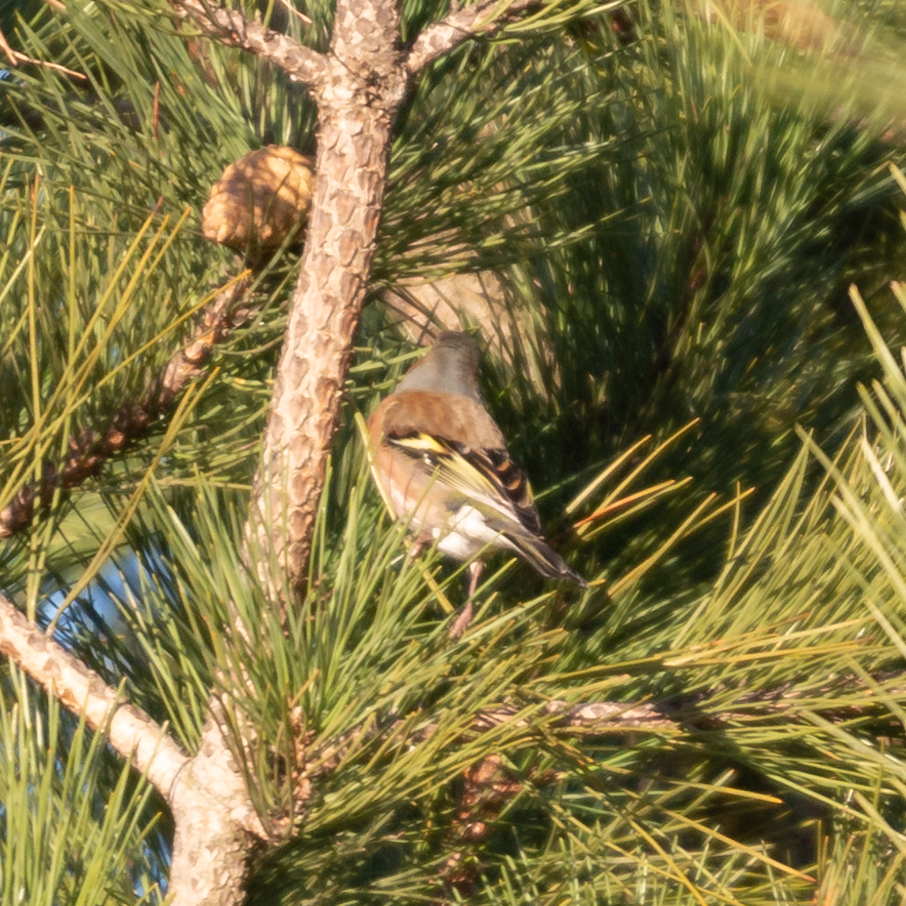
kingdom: Animalia
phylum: Chordata
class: Aves
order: Passeriformes
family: Fringillidae
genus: Fringilla
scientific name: Fringilla coelebs
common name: Common chaffinch
